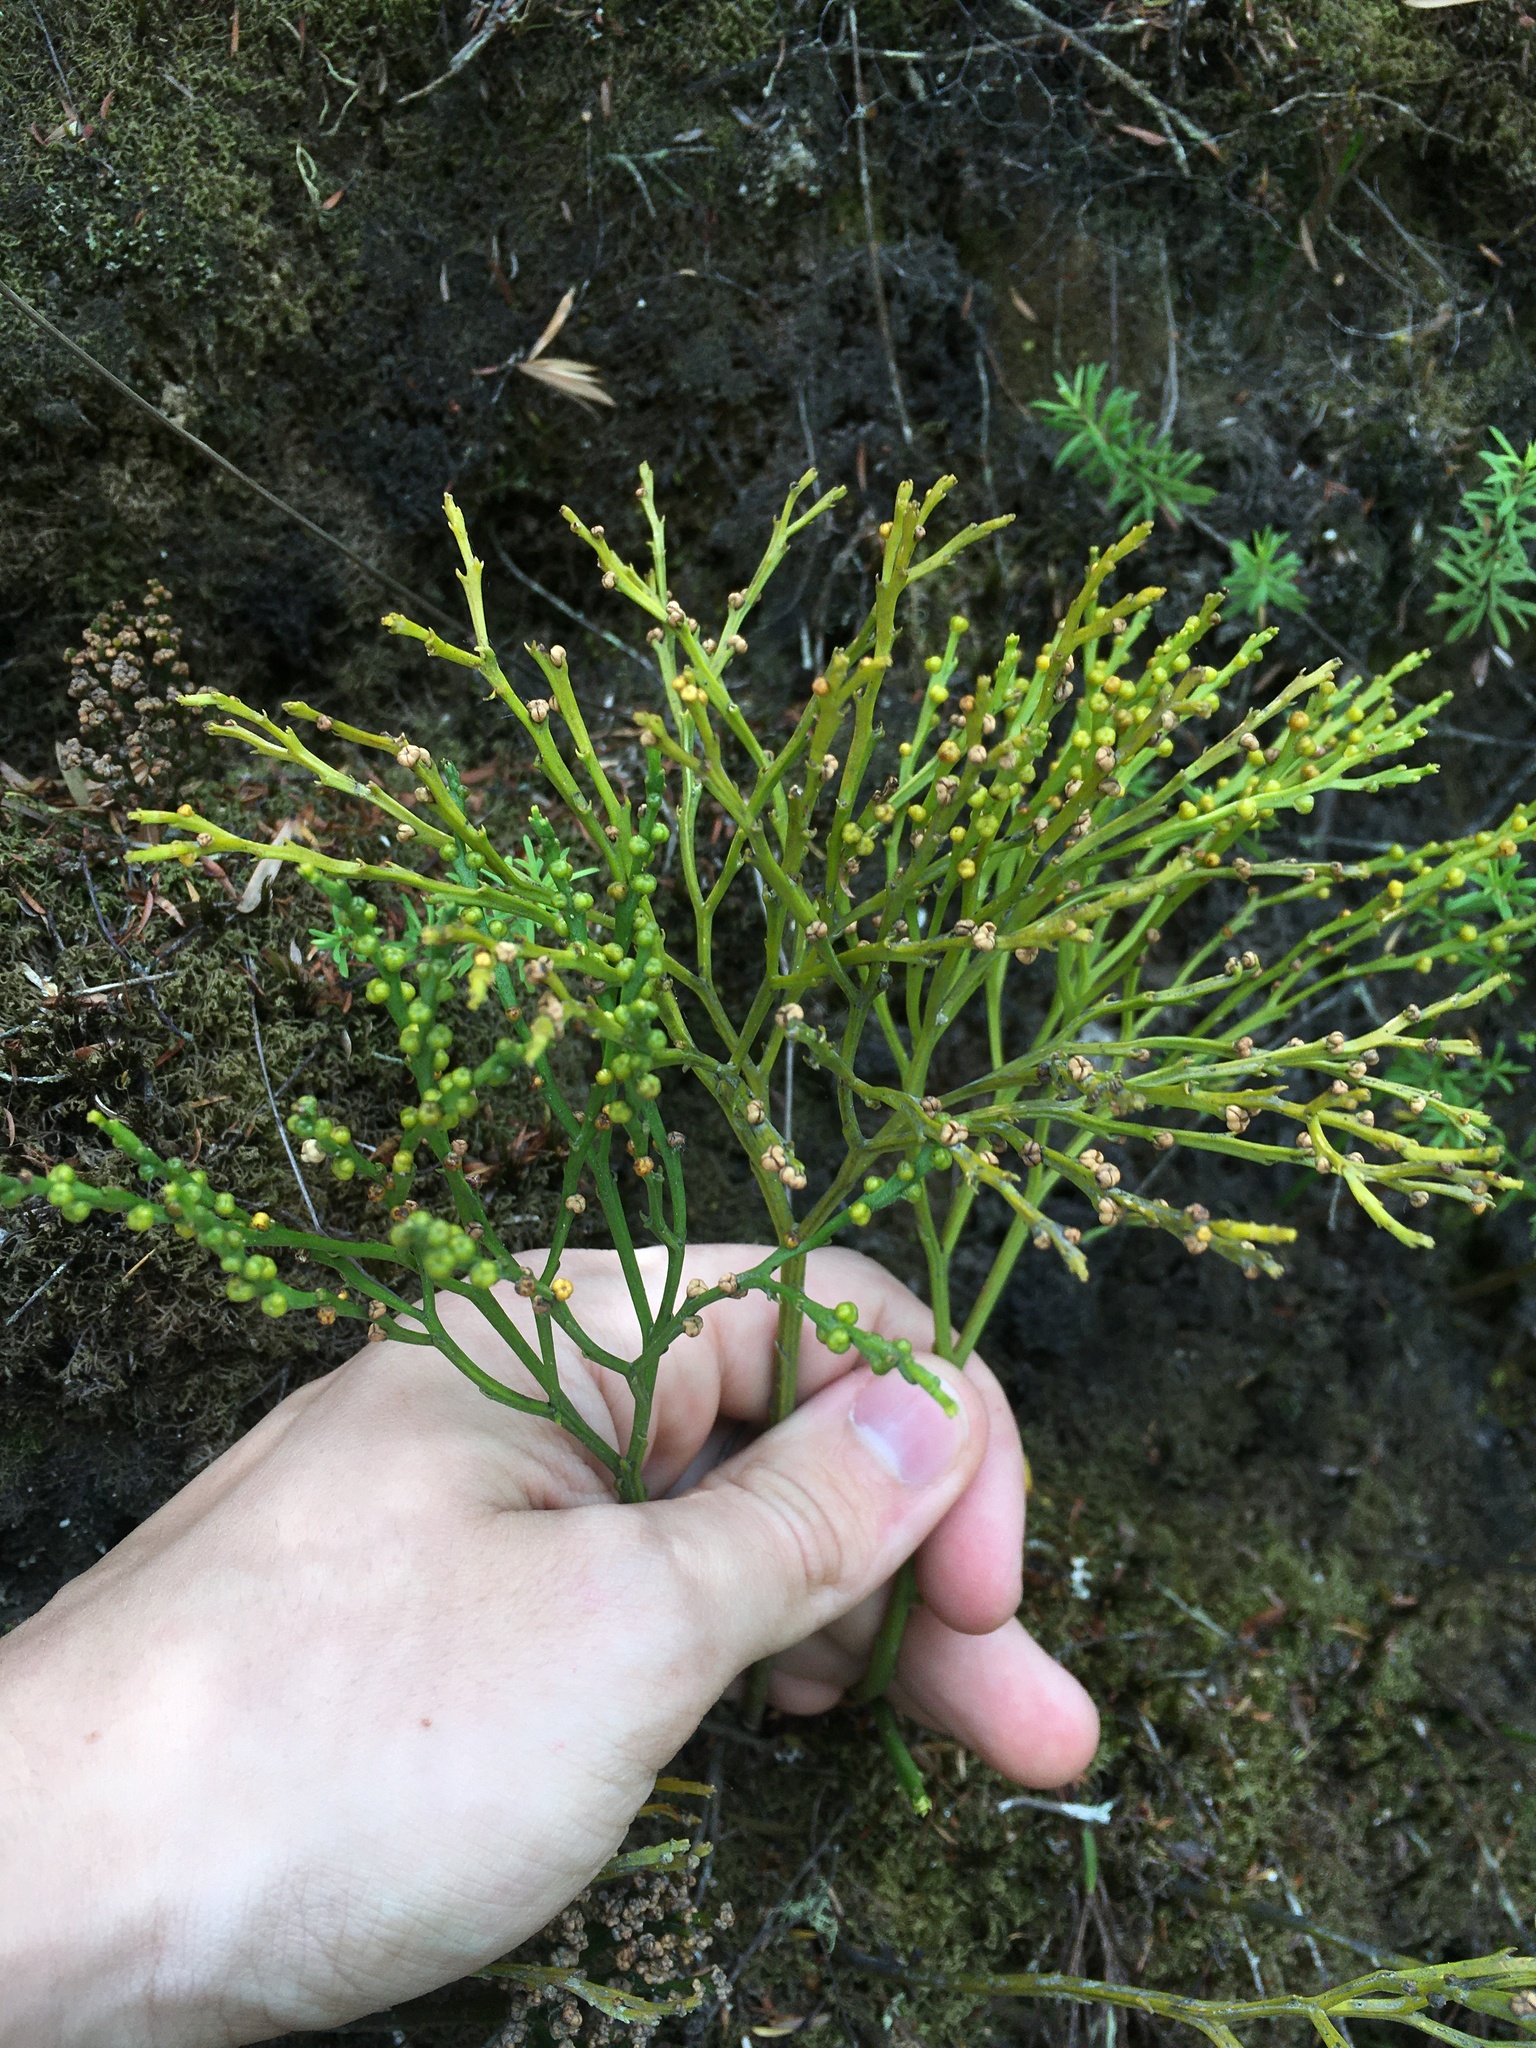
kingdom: Plantae
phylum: Tracheophyta
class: Polypodiopsida
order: Psilotales
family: Psilotaceae
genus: Psilotum
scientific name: Psilotum nudum
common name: Skeleton fork fern
